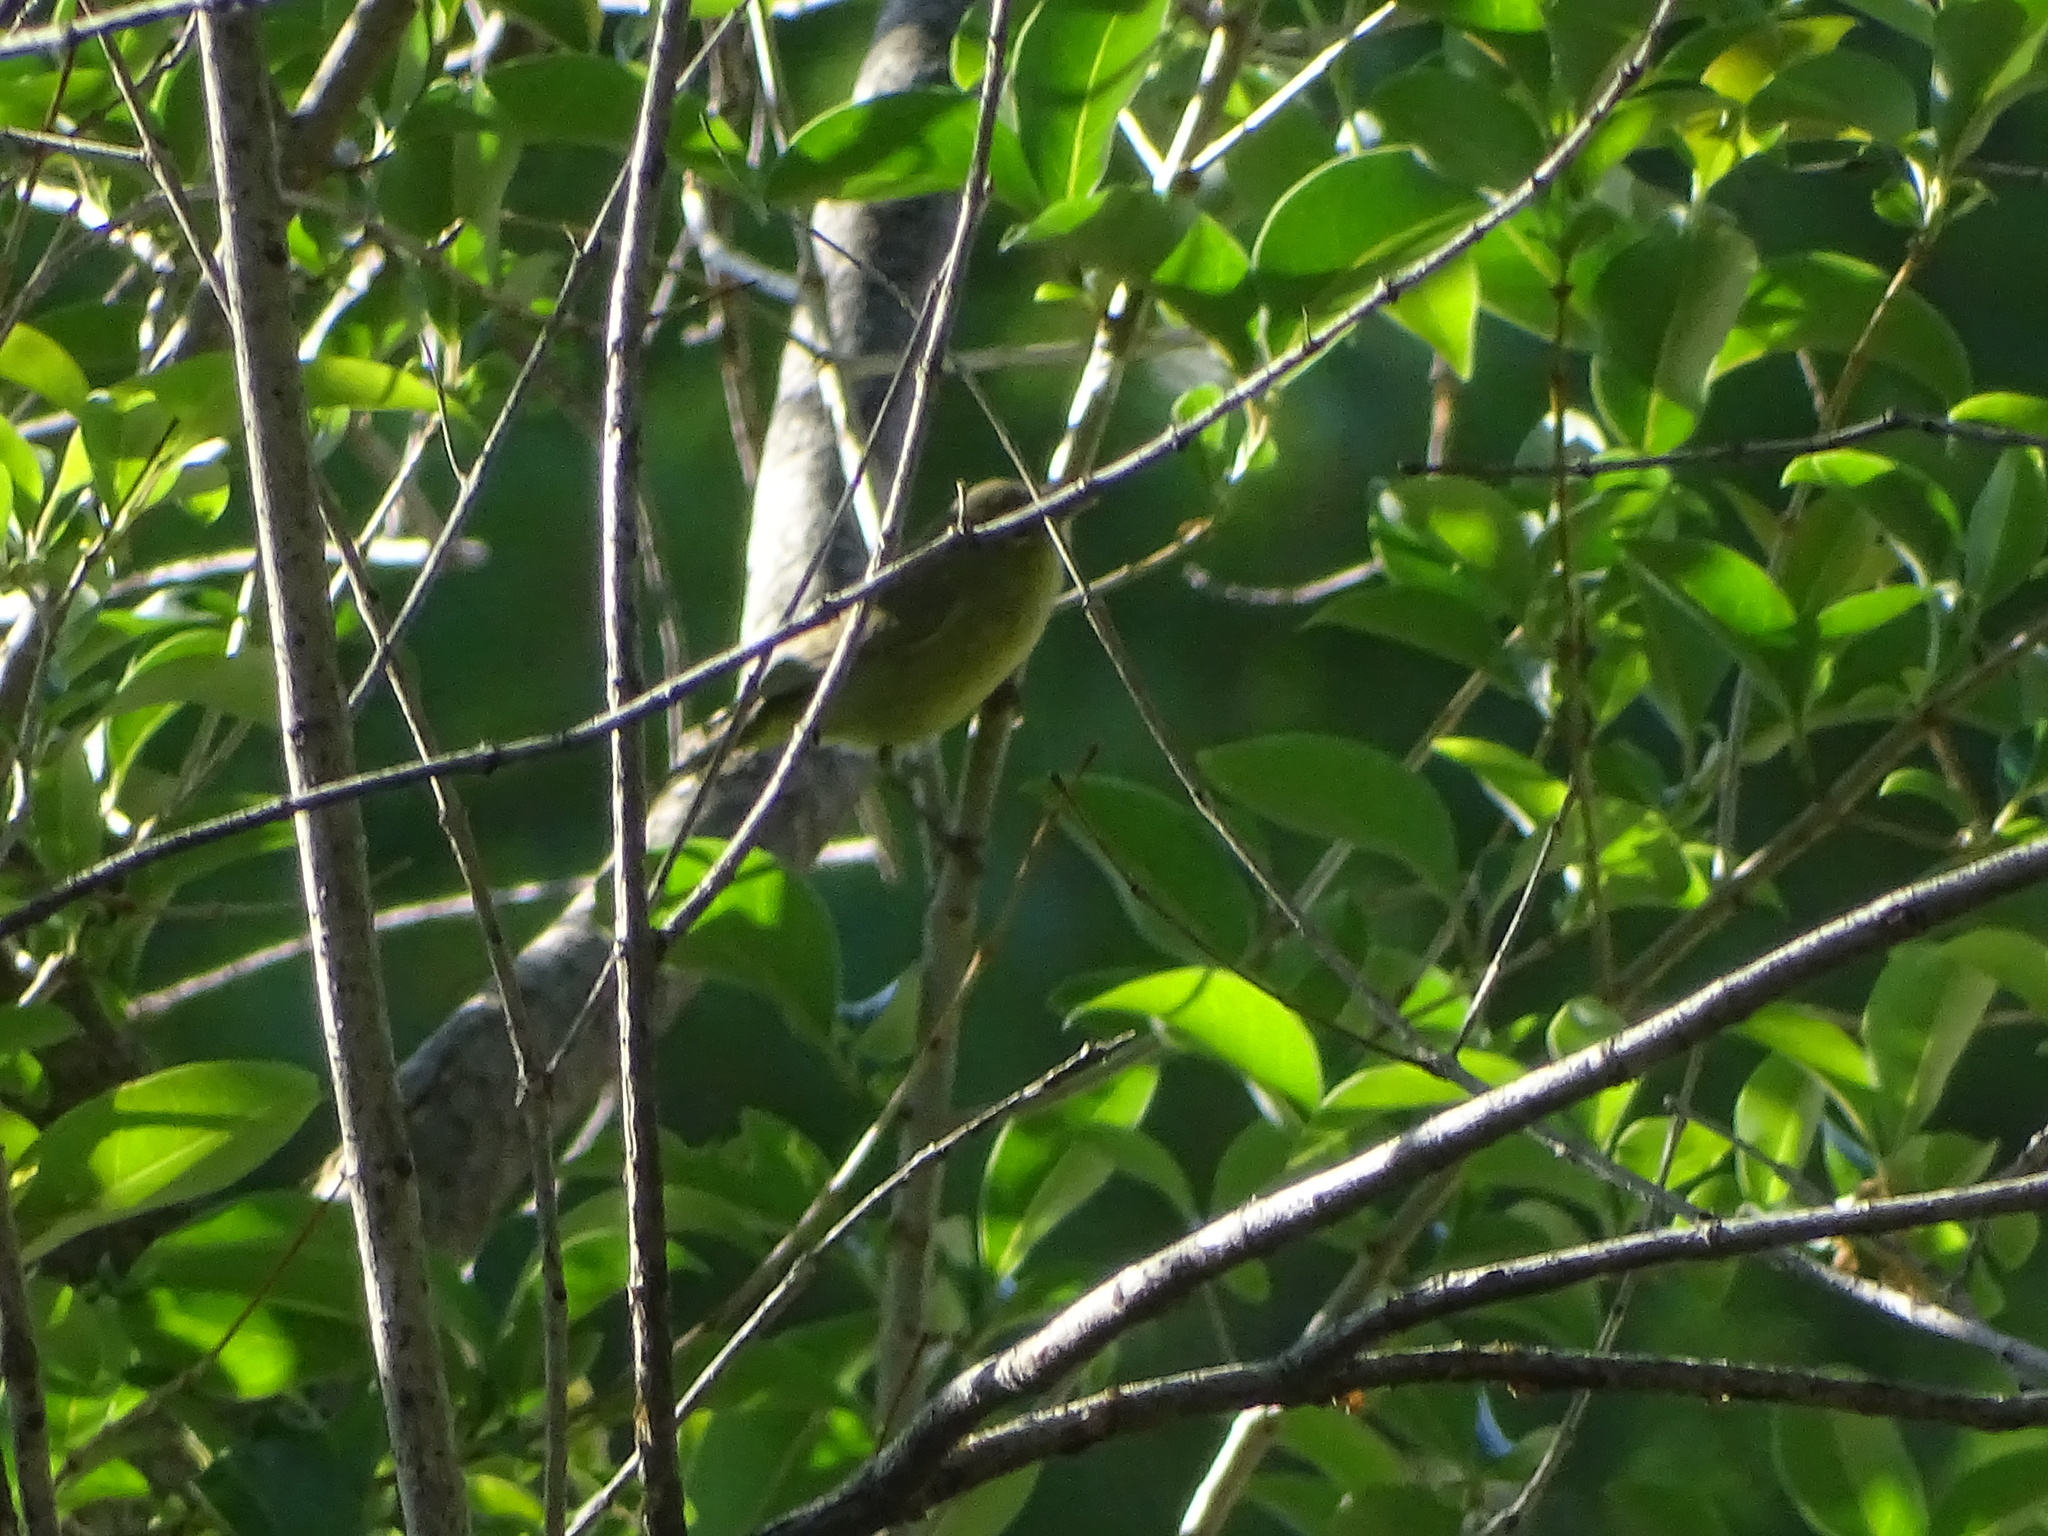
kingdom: Animalia
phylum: Chordata
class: Aves
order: Passeriformes
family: Parulidae
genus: Leiothlypis
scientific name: Leiothlypis celata
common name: Orange-crowned warbler
